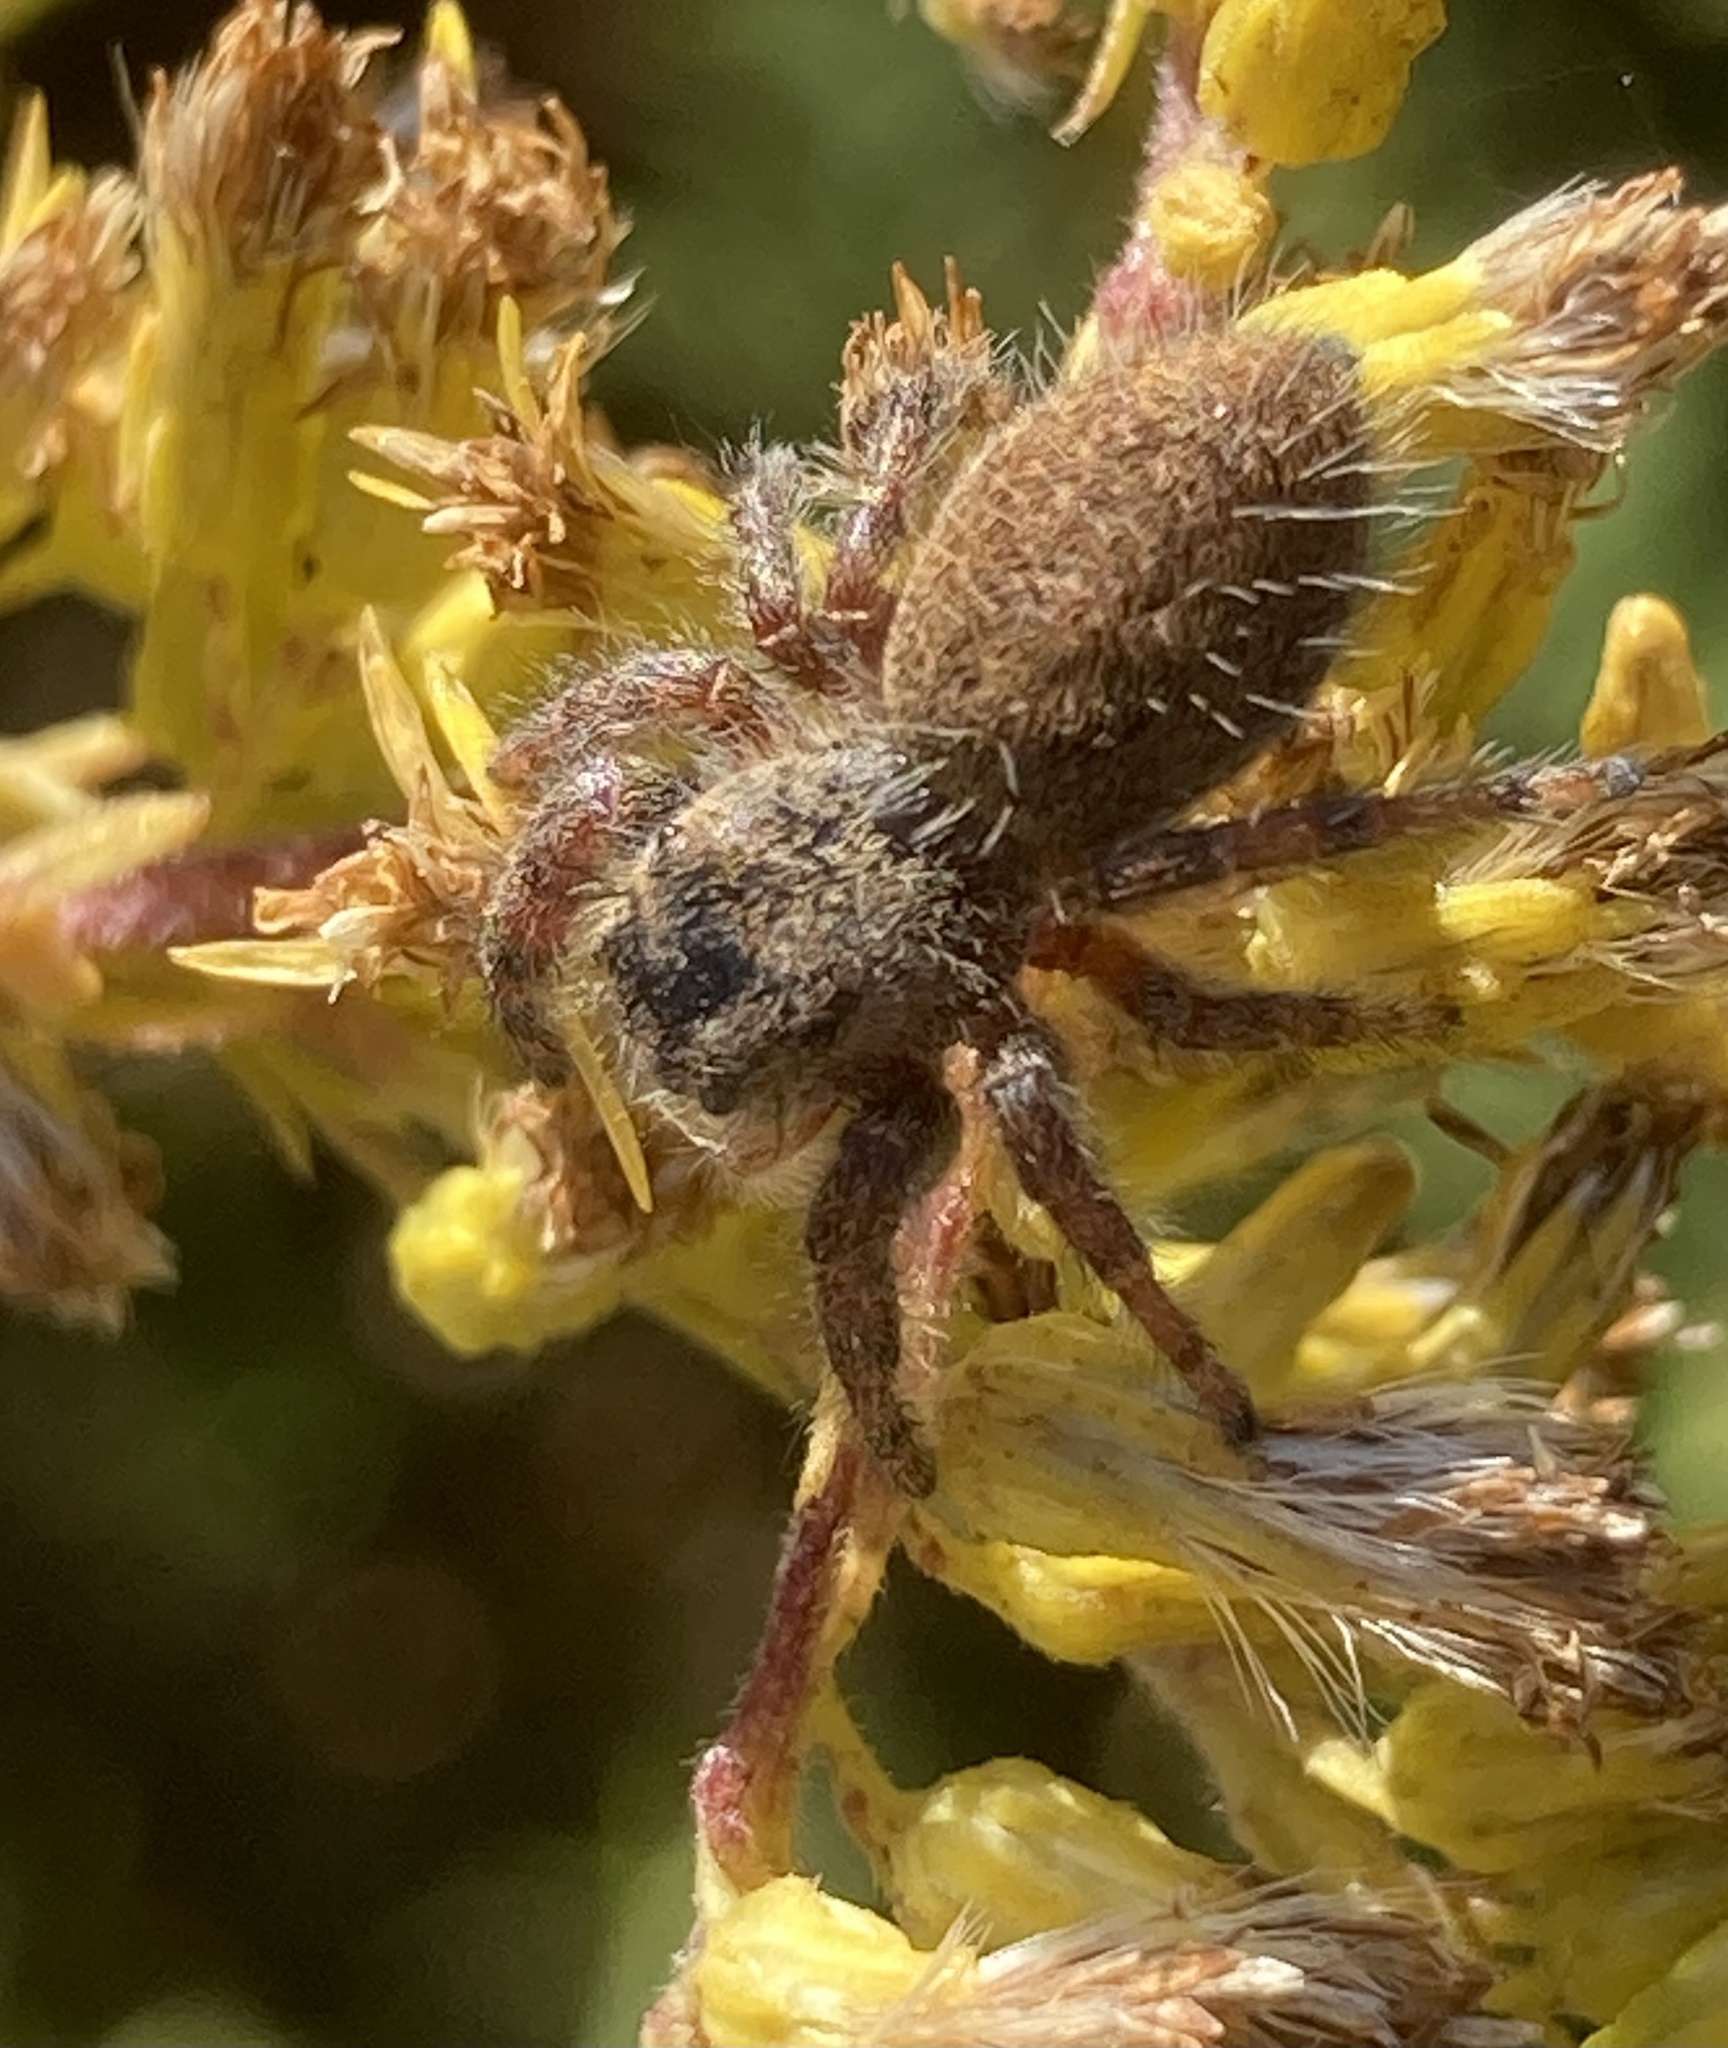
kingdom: Animalia
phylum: Arthropoda
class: Arachnida
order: Araneae
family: Salticidae
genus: Phidippus
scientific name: Phidippus princeps
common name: Grayish jumping spider
